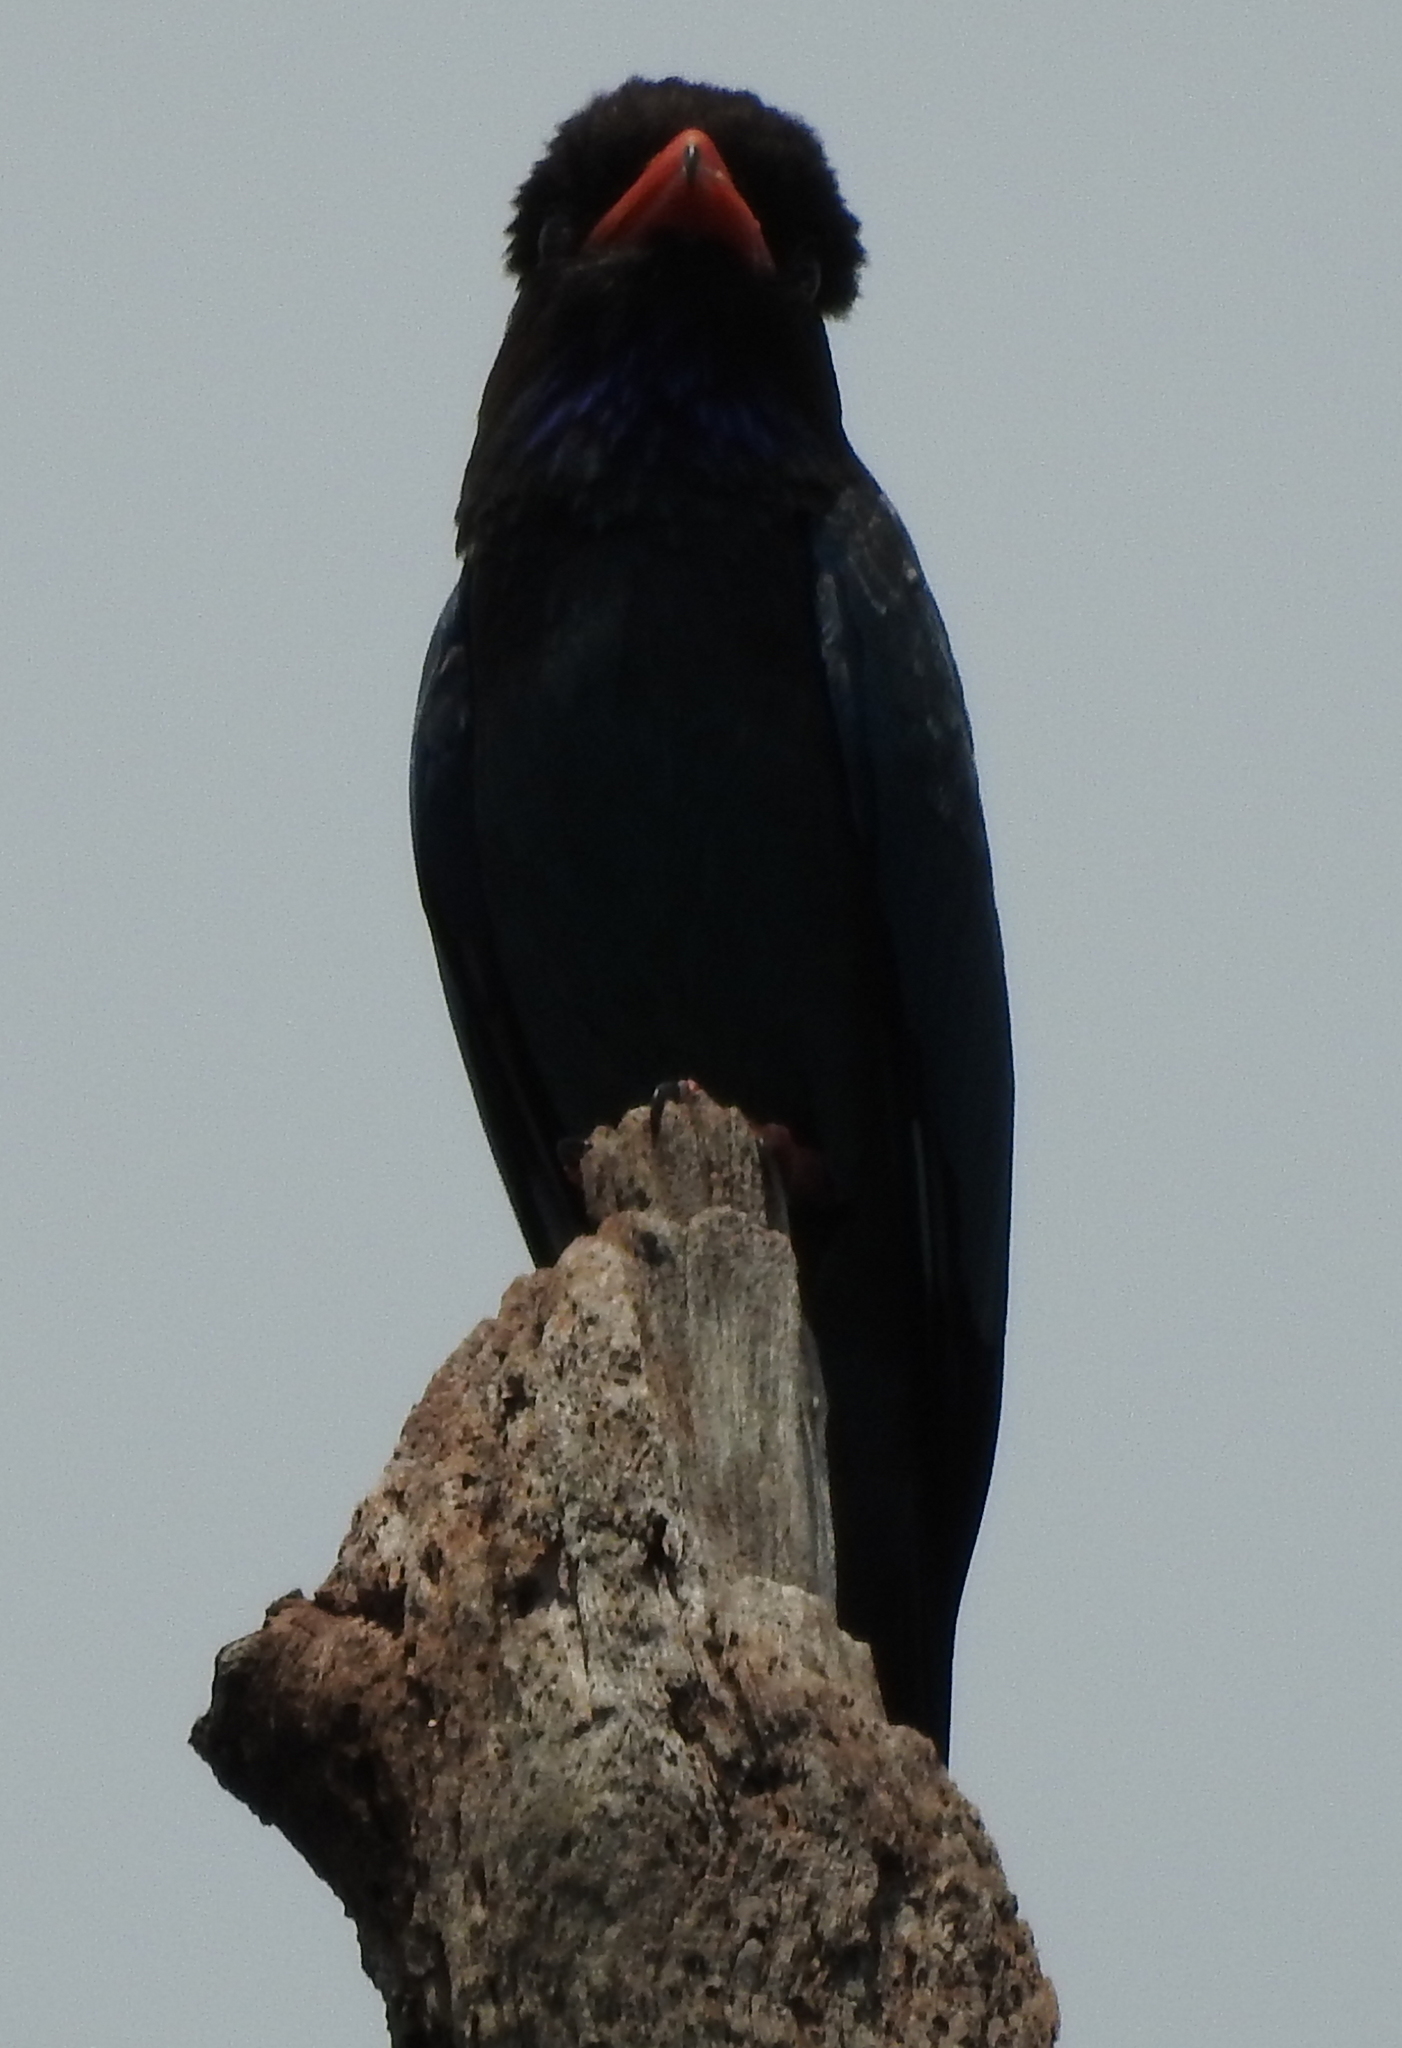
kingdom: Animalia
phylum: Chordata
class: Aves
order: Coraciiformes
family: Coraciidae
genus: Eurystomus
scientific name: Eurystomus orientalis
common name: Oriental dollarbird
